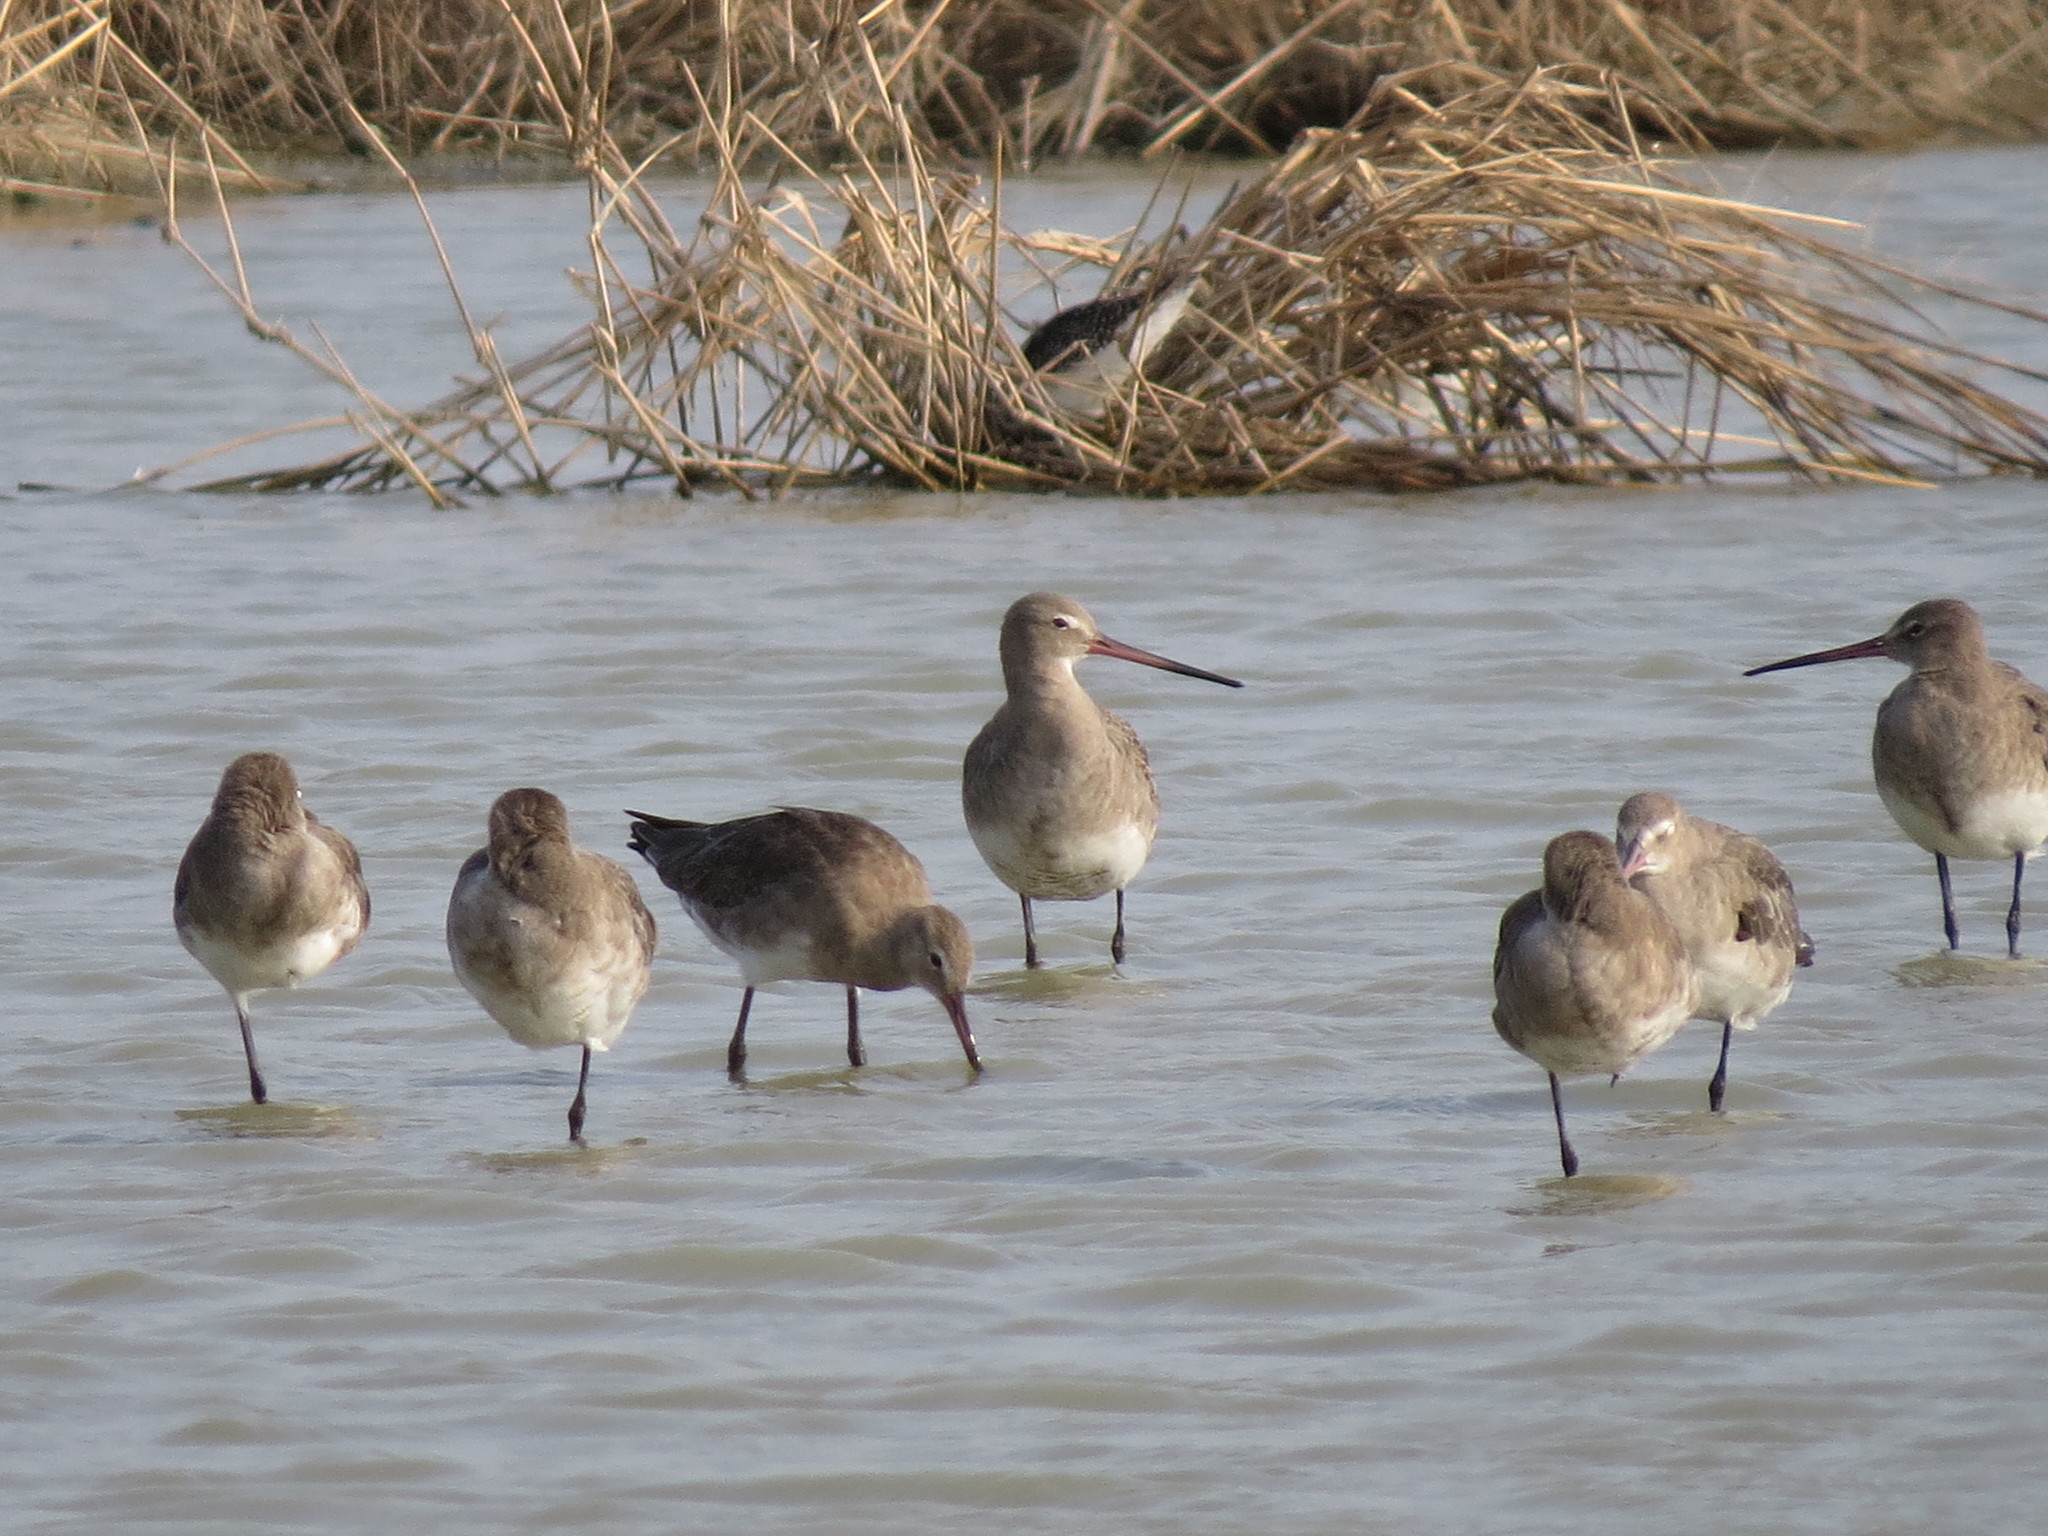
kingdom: Animalia
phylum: Chordata
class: Aves
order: Charadriiformes
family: Scolopacidae
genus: Limosa
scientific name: Limosa limosa
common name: Black-tailed godwit
